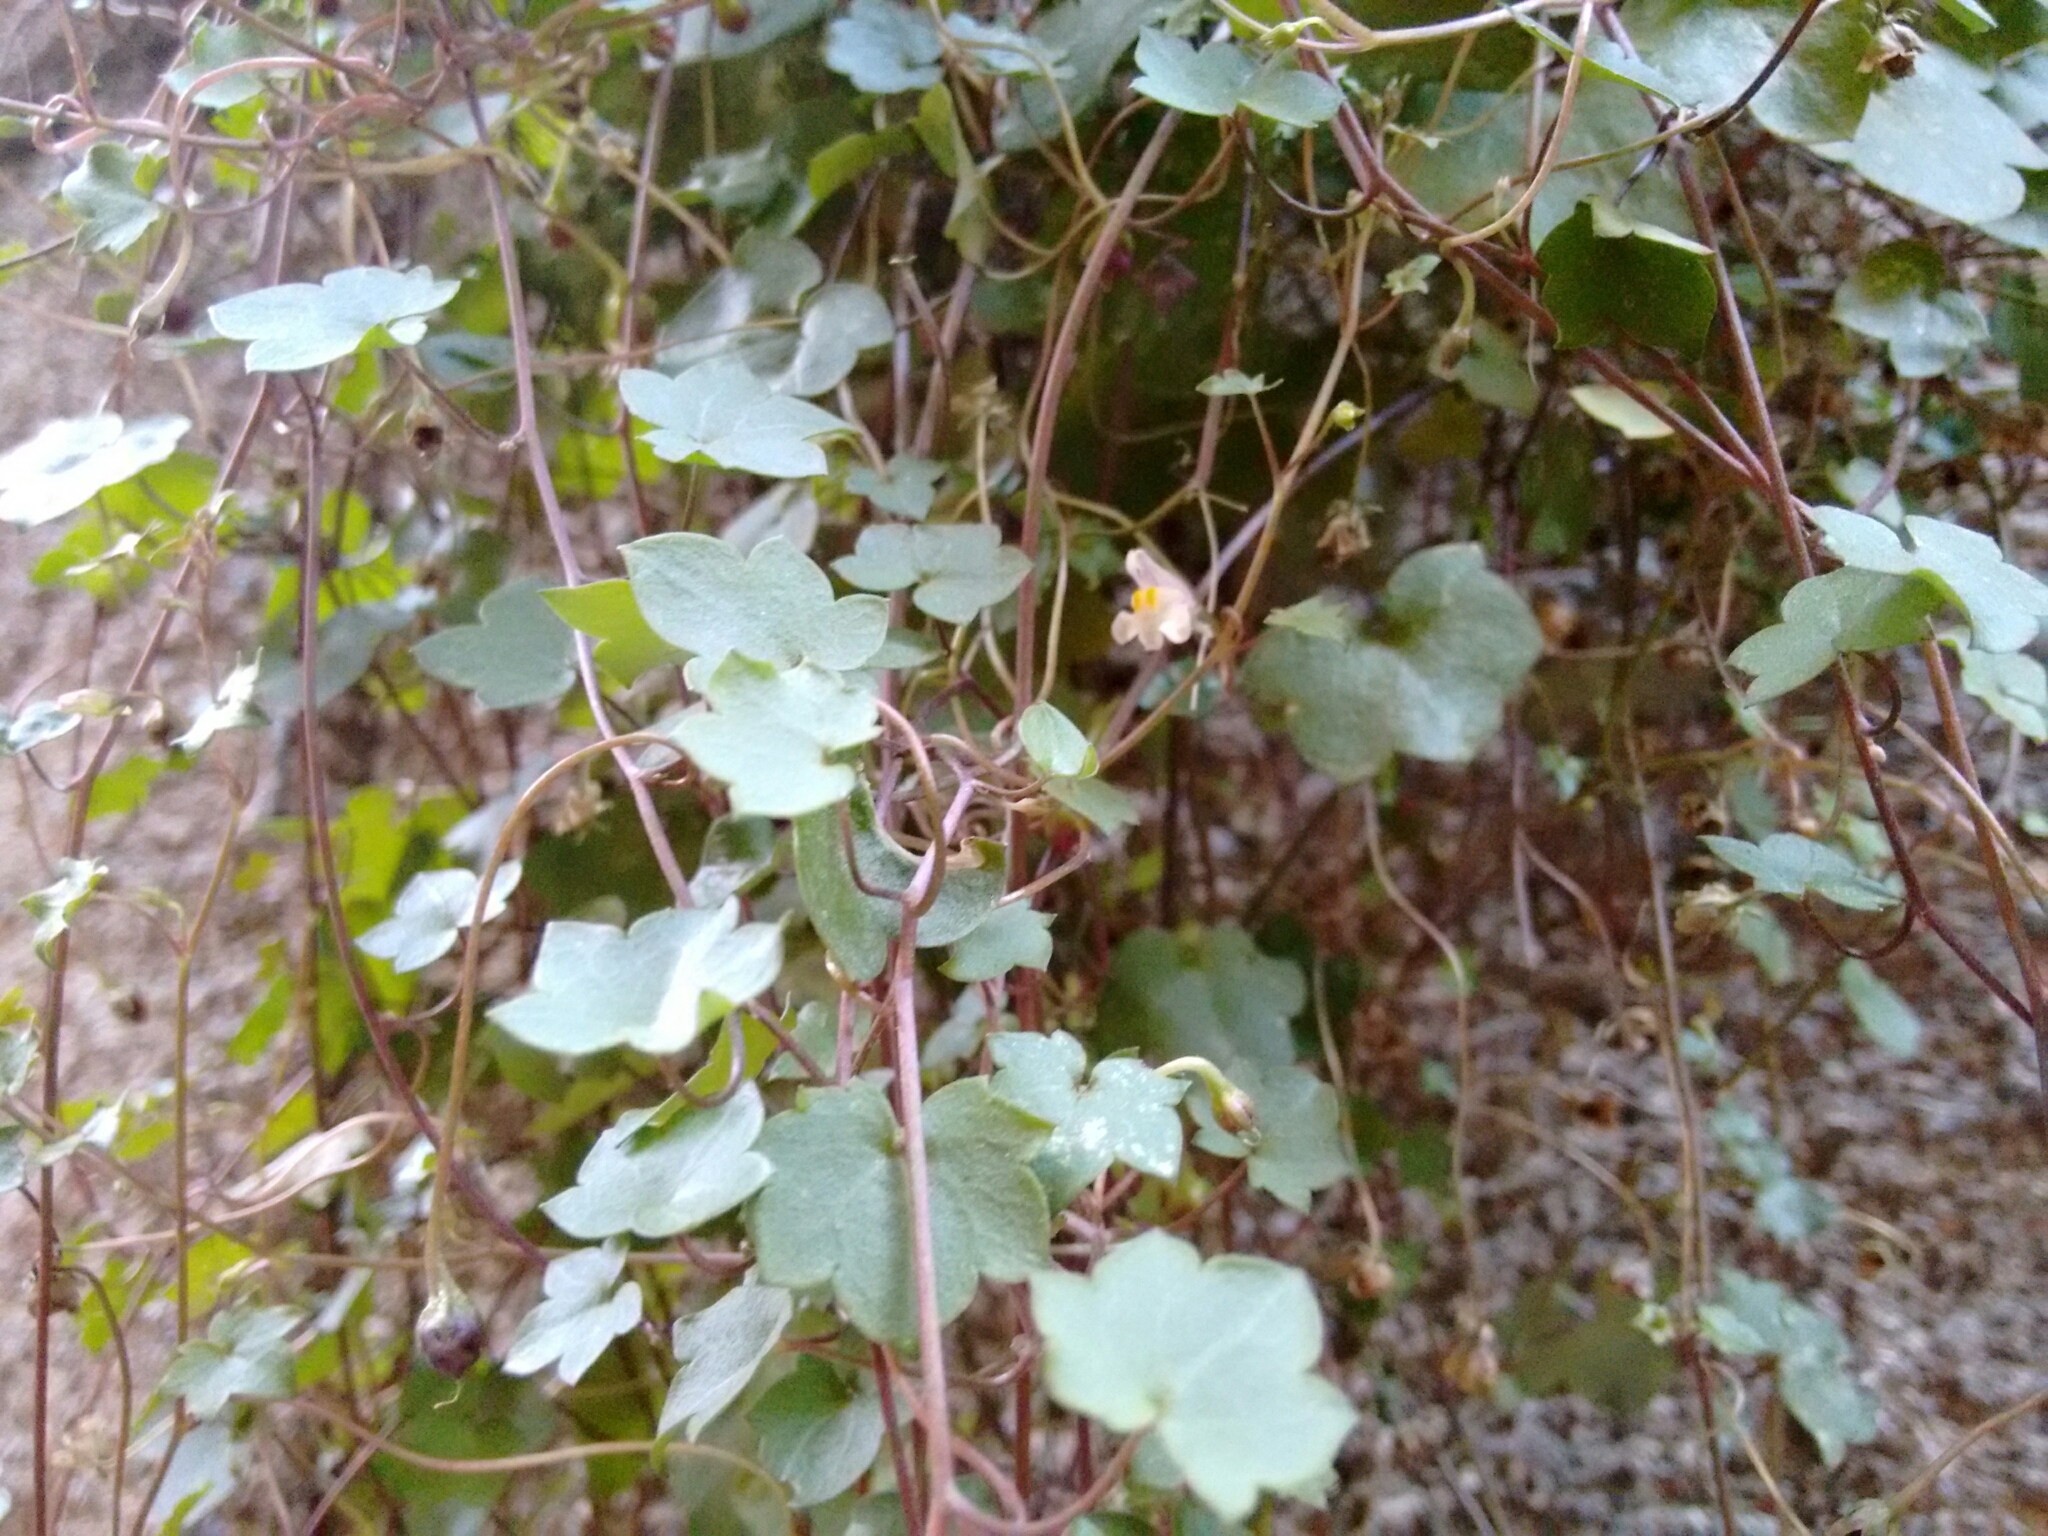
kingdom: Plantae
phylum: Tracheophyta
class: Magnoliopsida
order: Lamiales
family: Plantaginaceae
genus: Cymbalaria
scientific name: Cymbalaria muralis
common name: Ivy-leaved toadflax
